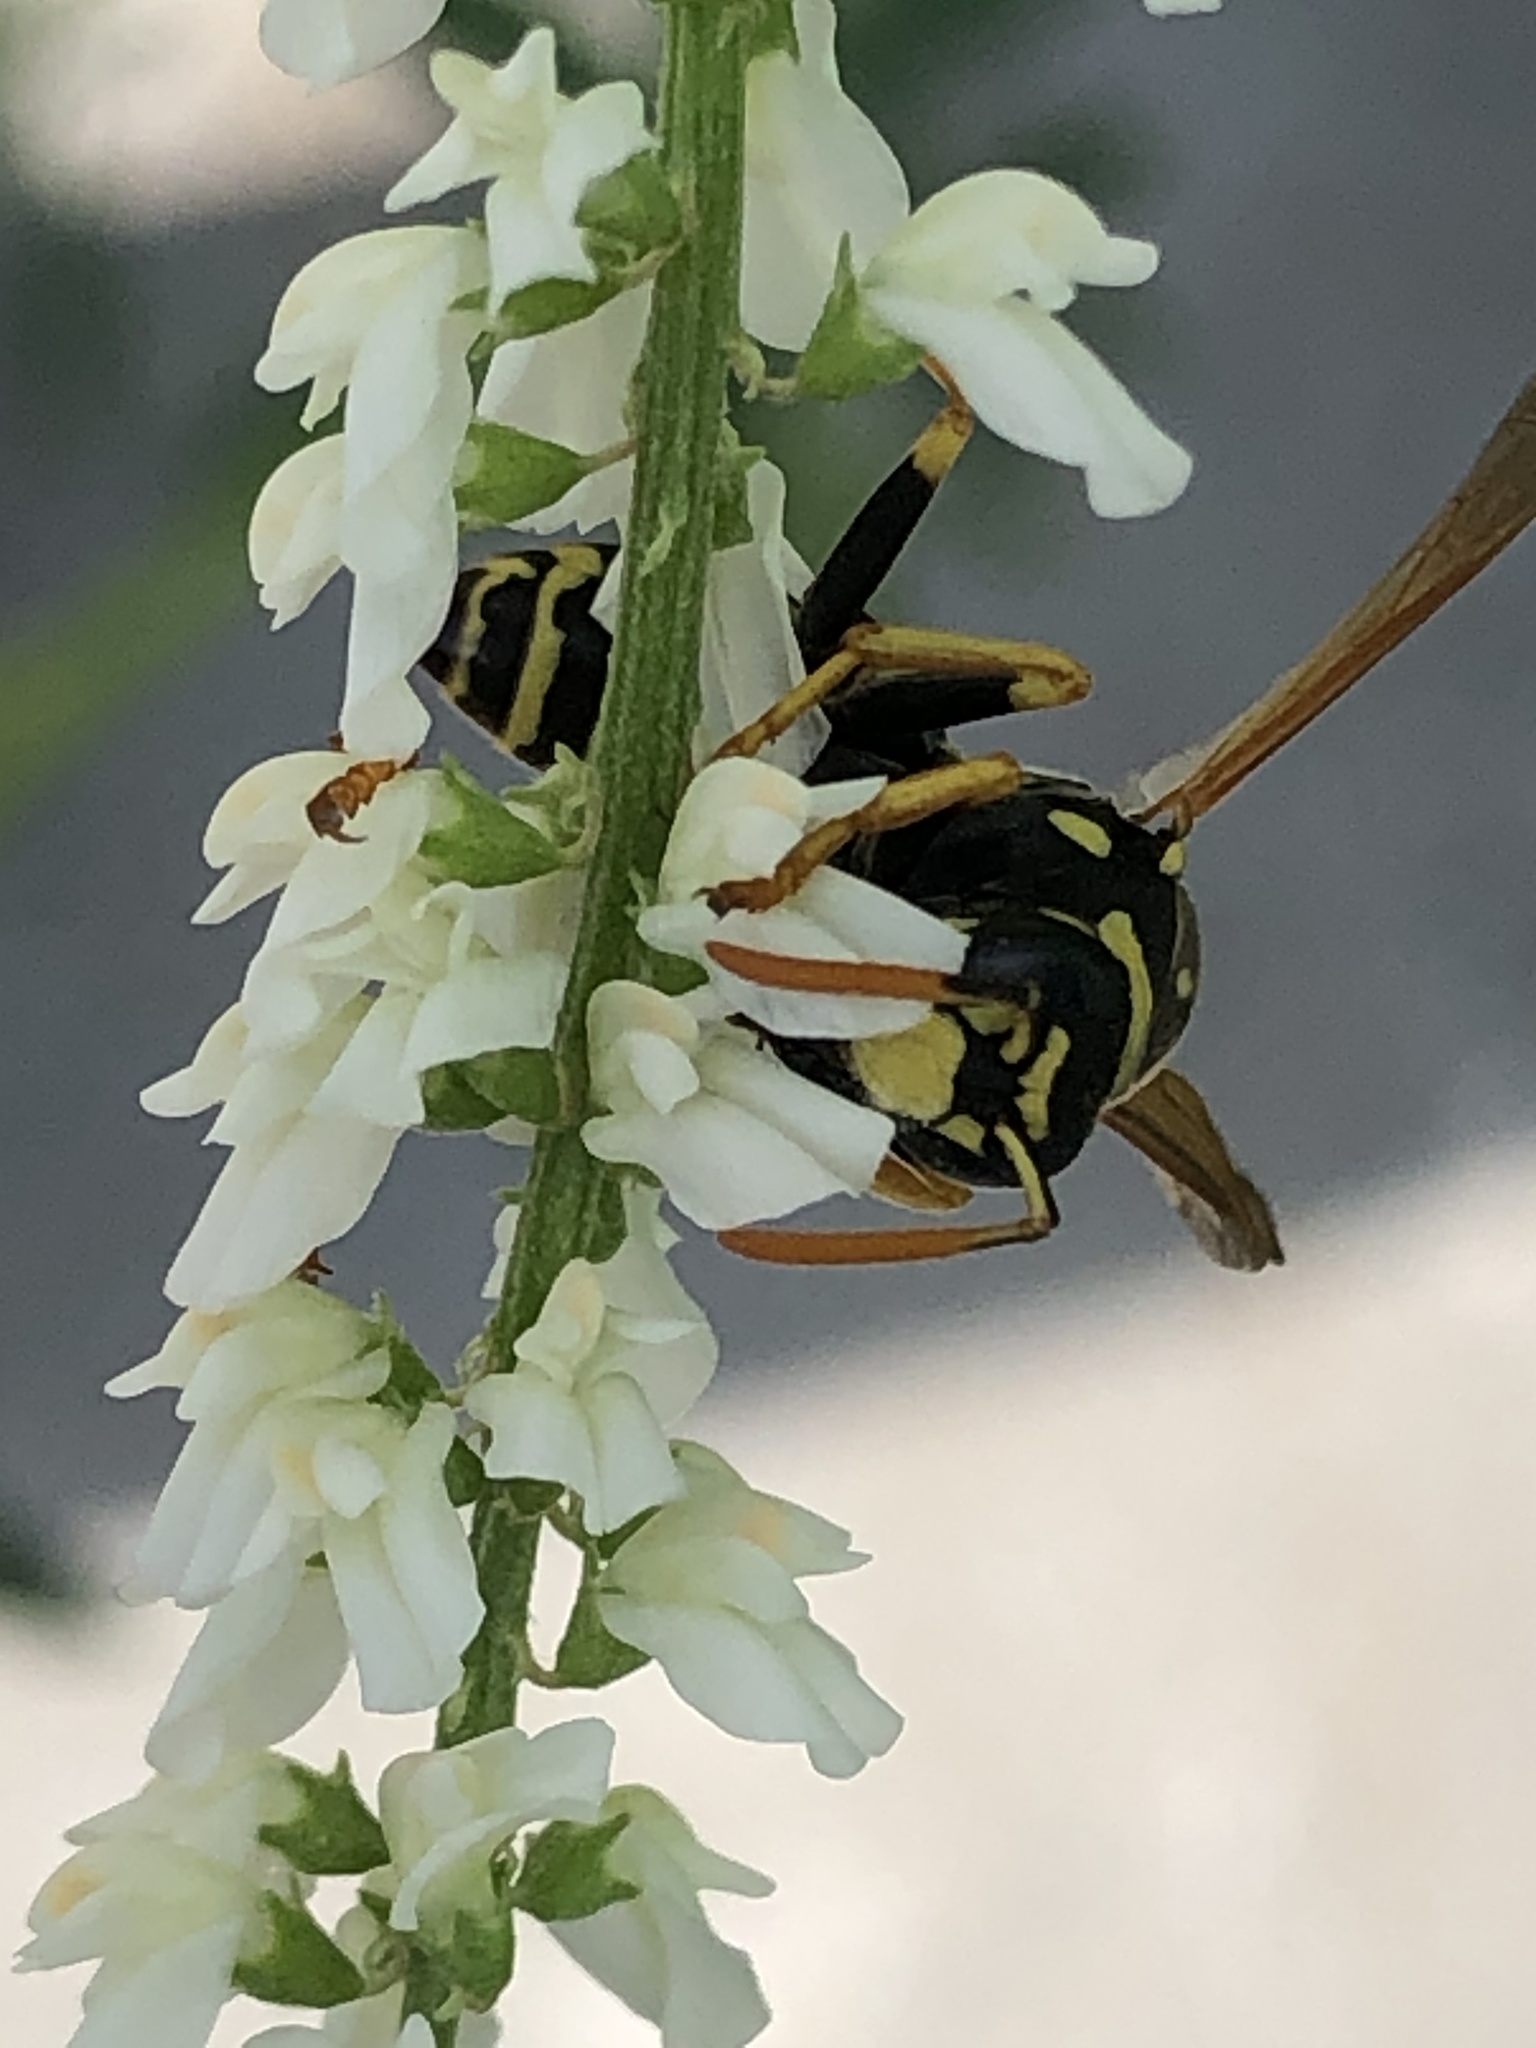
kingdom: Animalia
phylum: Arthropoda
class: Insecta
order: Hymenoptera
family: Eumenidae
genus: Polistes
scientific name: Polistes dominula
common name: Paper wasp
